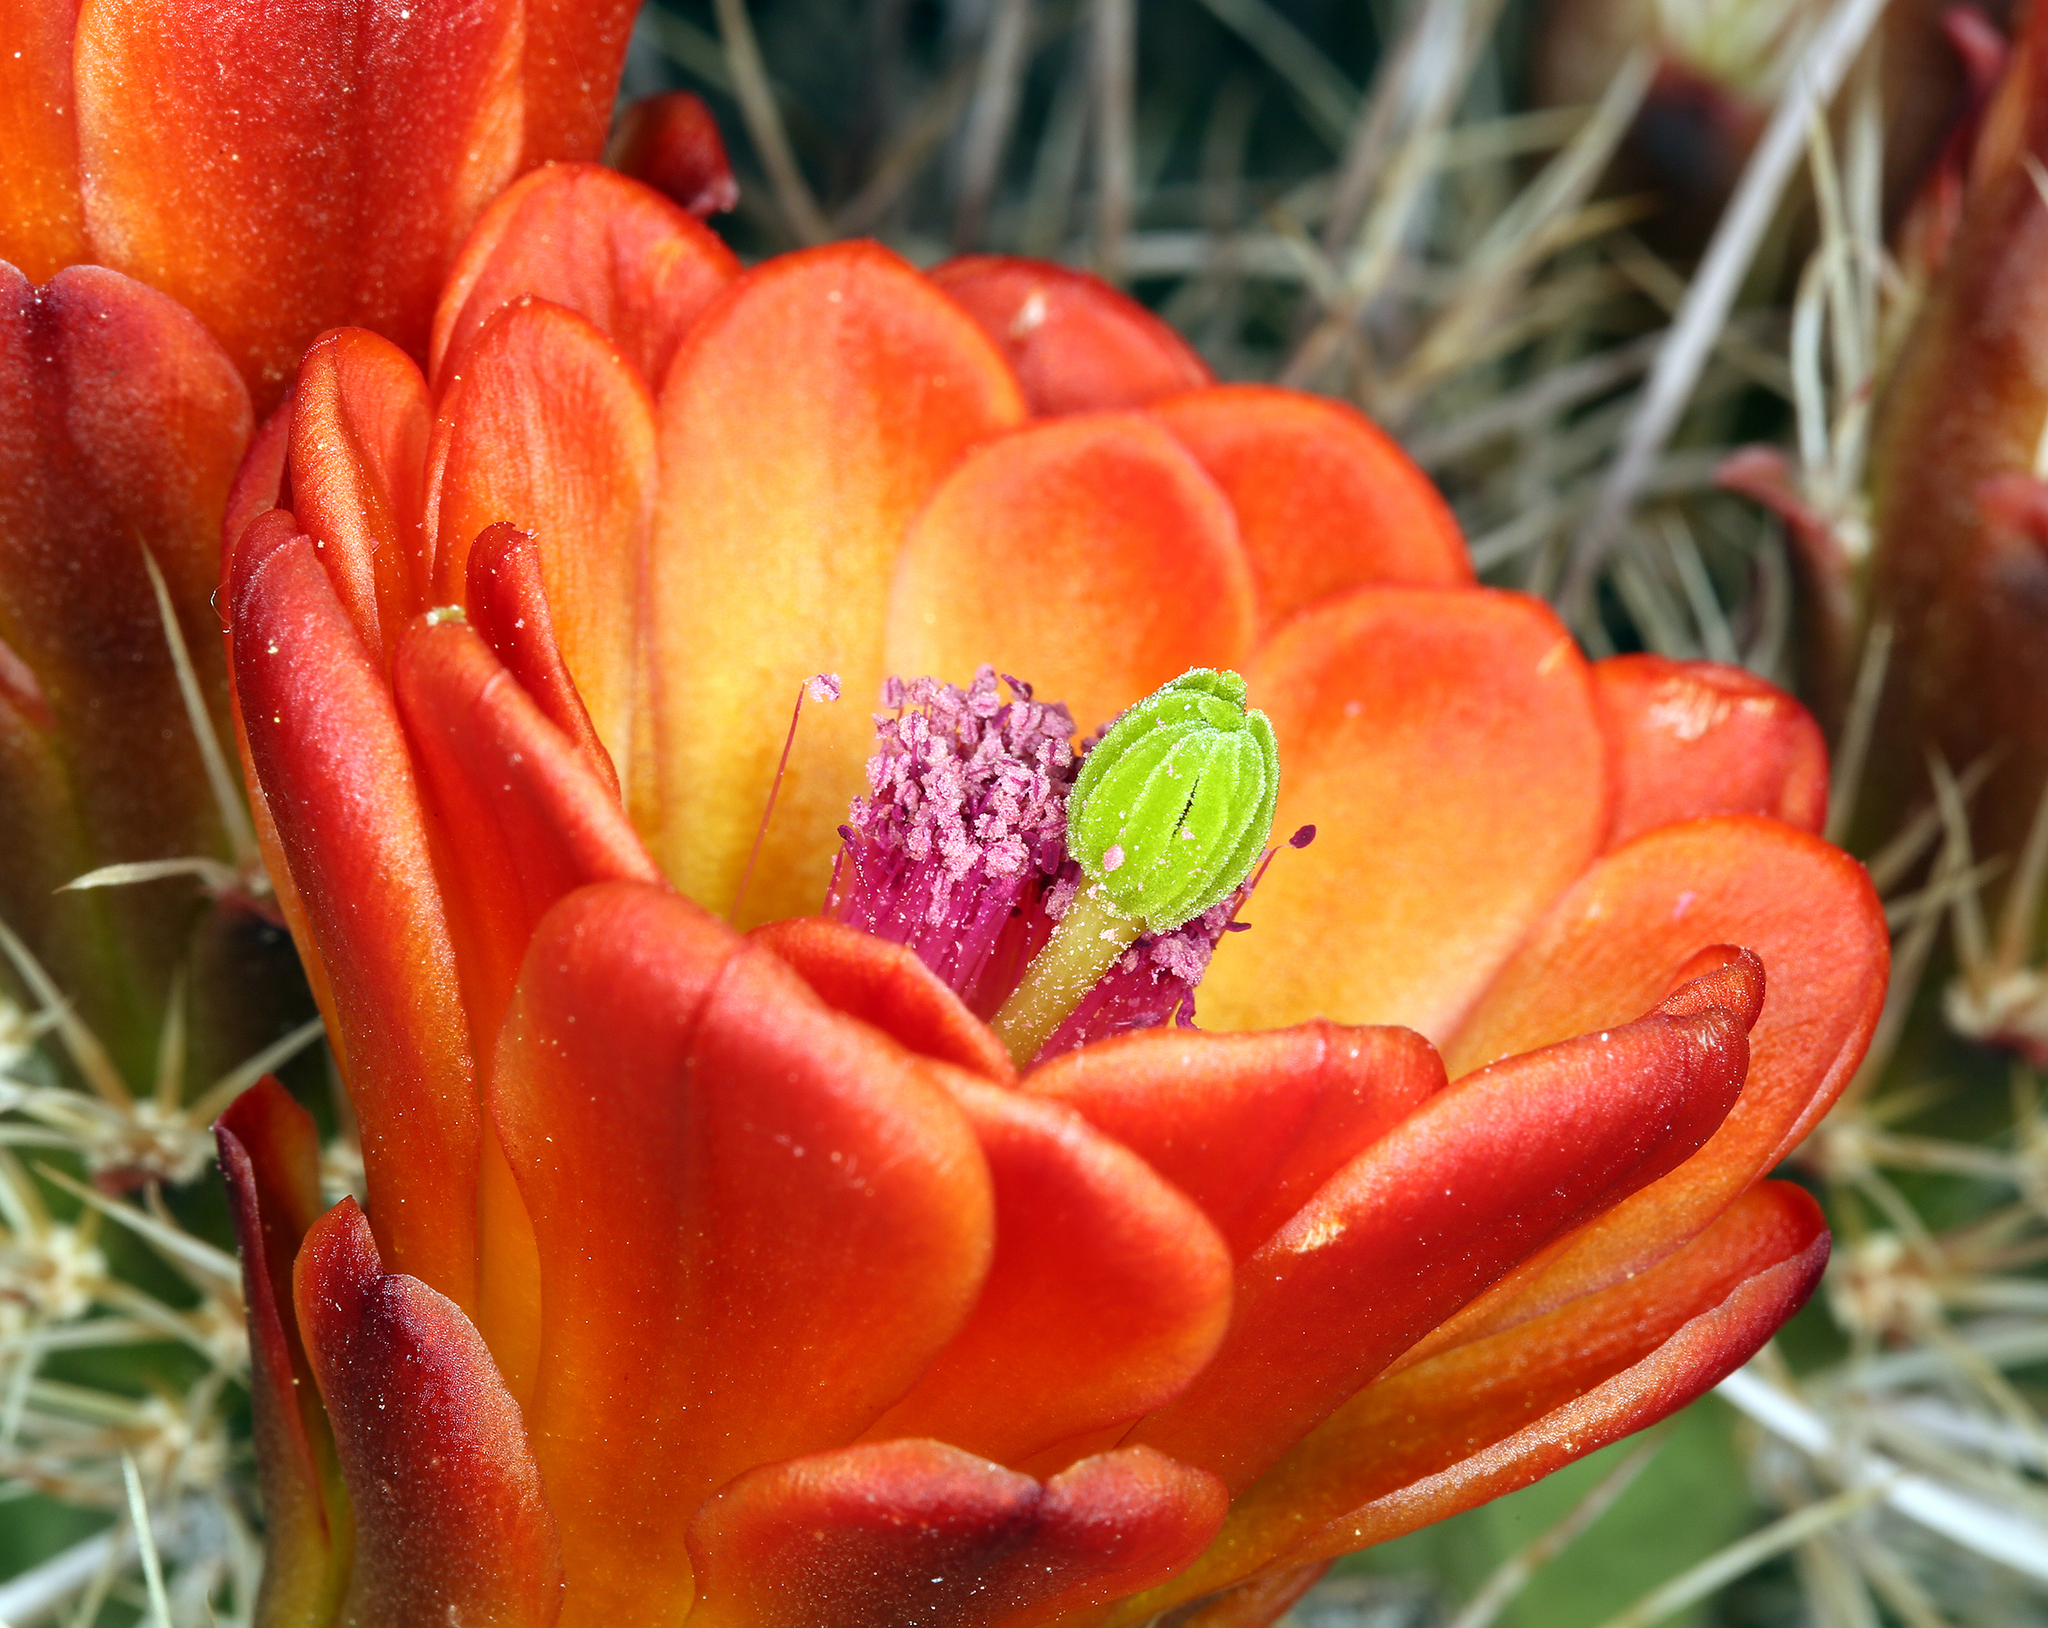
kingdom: Plantae
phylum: Tracheophyta
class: Magnoliopsida
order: Caryophyllales
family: Cactaceae
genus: Echinocereus
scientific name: Echinocereus triglochidiatus
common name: Claretcup hedgehog
